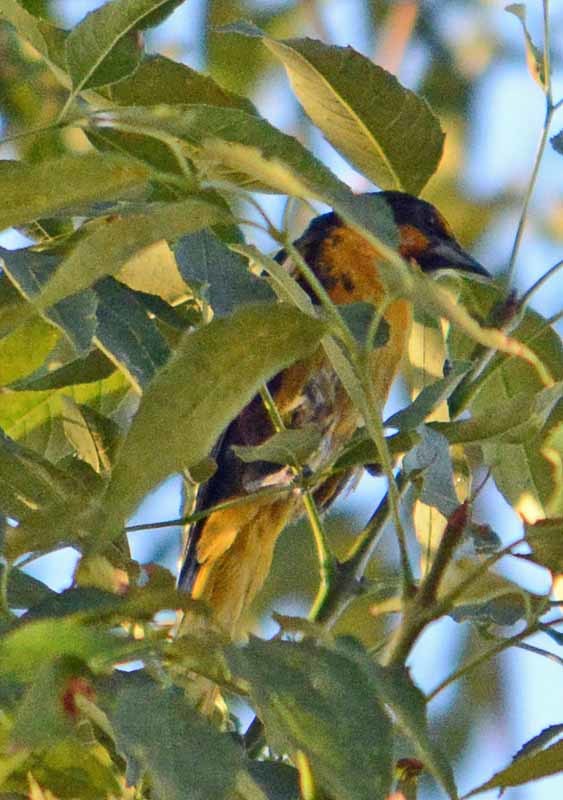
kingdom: Animalia
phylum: Chordata
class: Aves
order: Passeriformes
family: Icteridae
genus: Icterus
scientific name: Icterus abeillei
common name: Black-backed oriole
